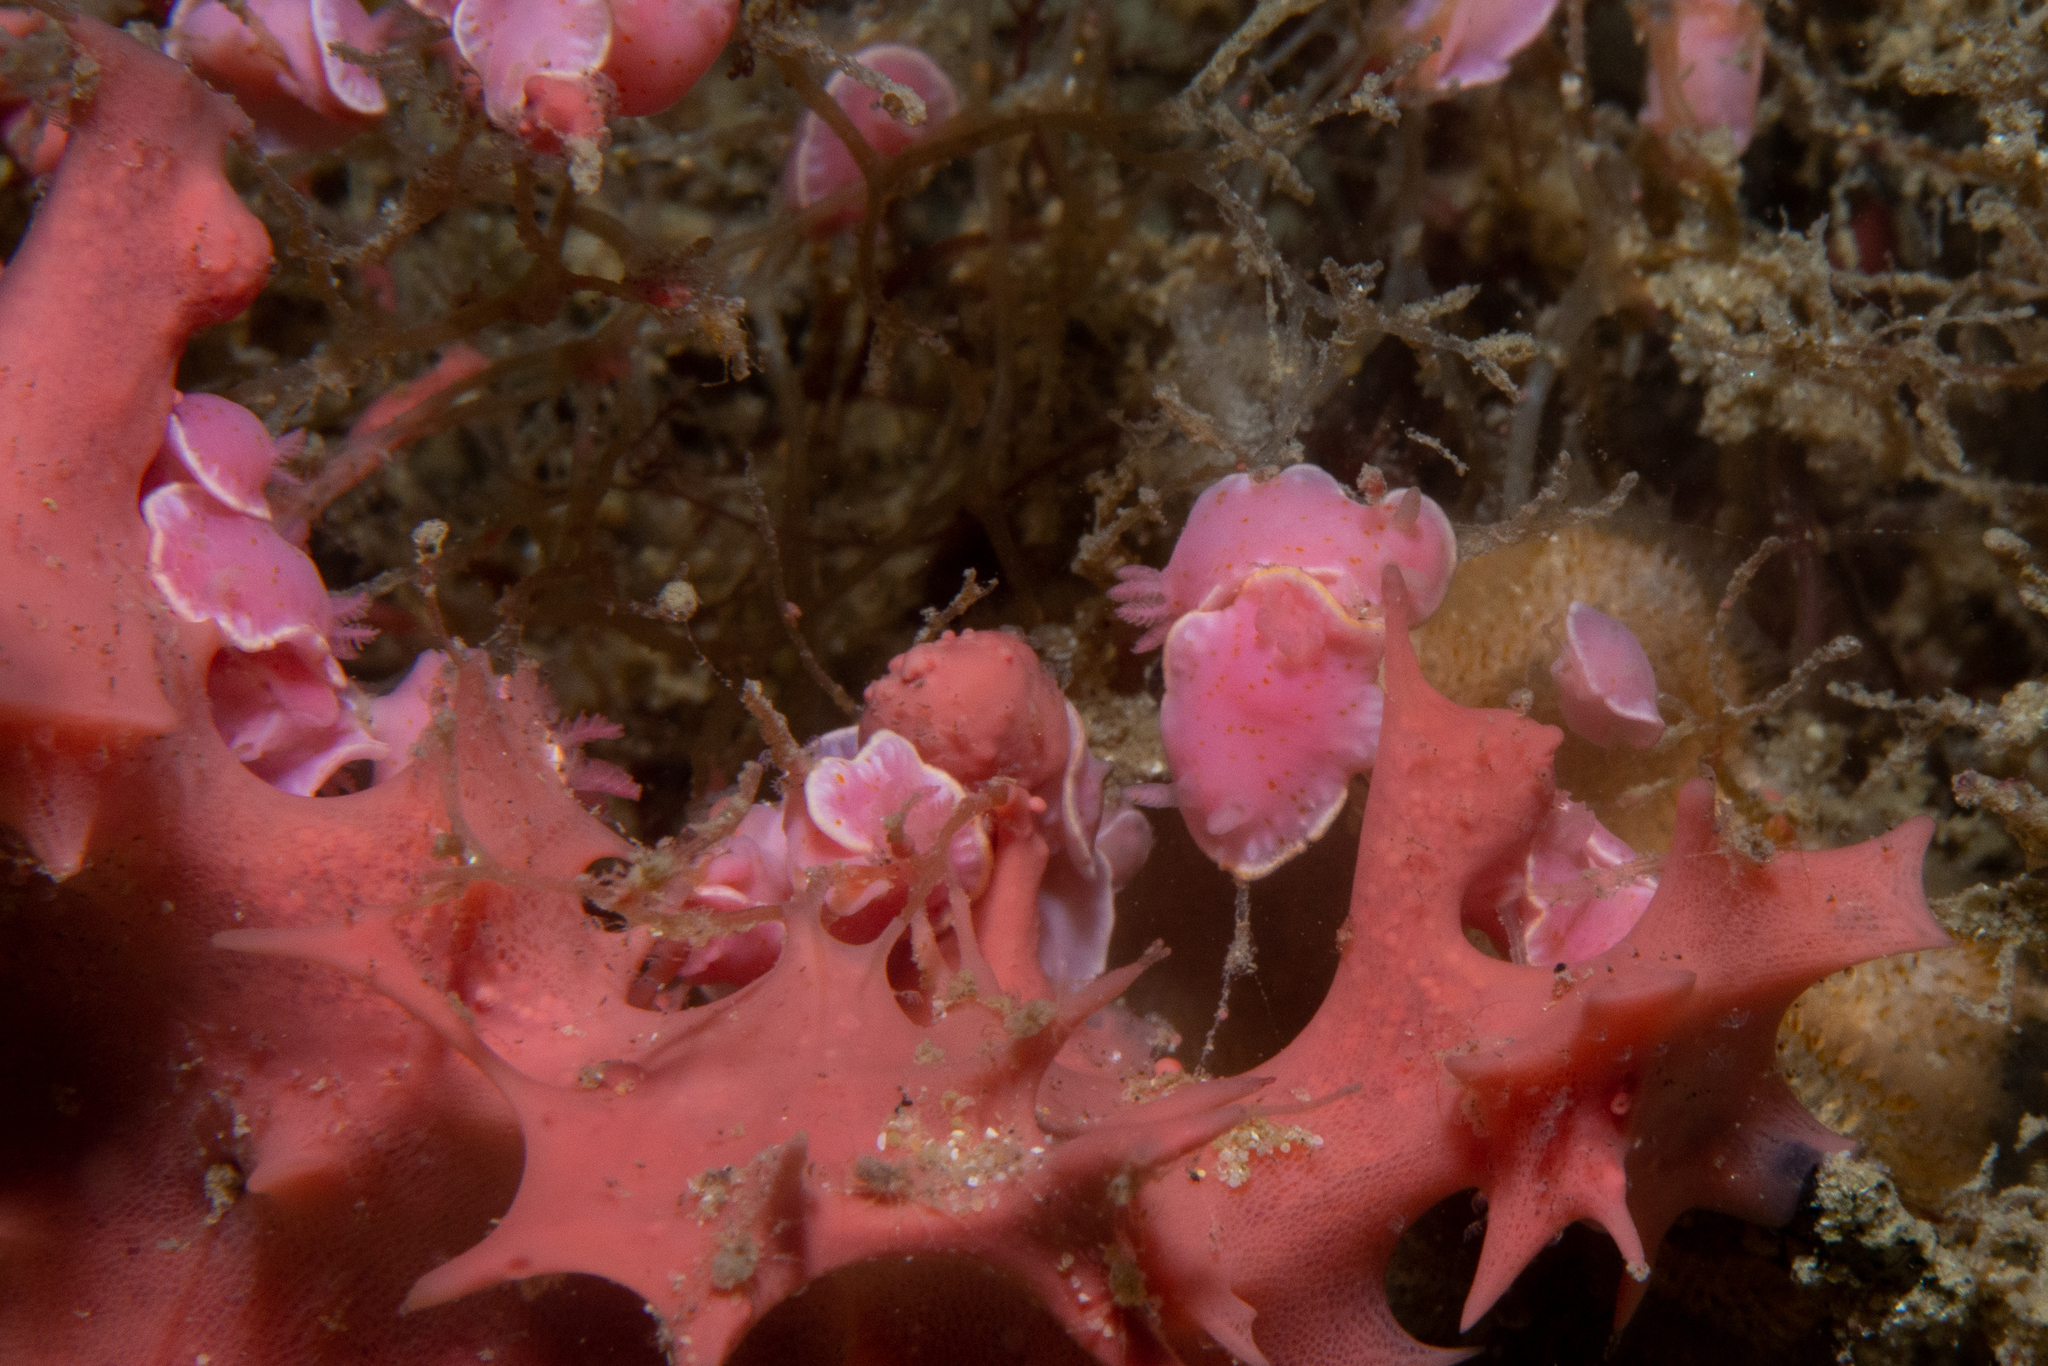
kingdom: Animalia
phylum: Mollusca
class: Gastropoda
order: Nudibranchia
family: Chromodorididae
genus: Verconia
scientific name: Verconia haliclona
